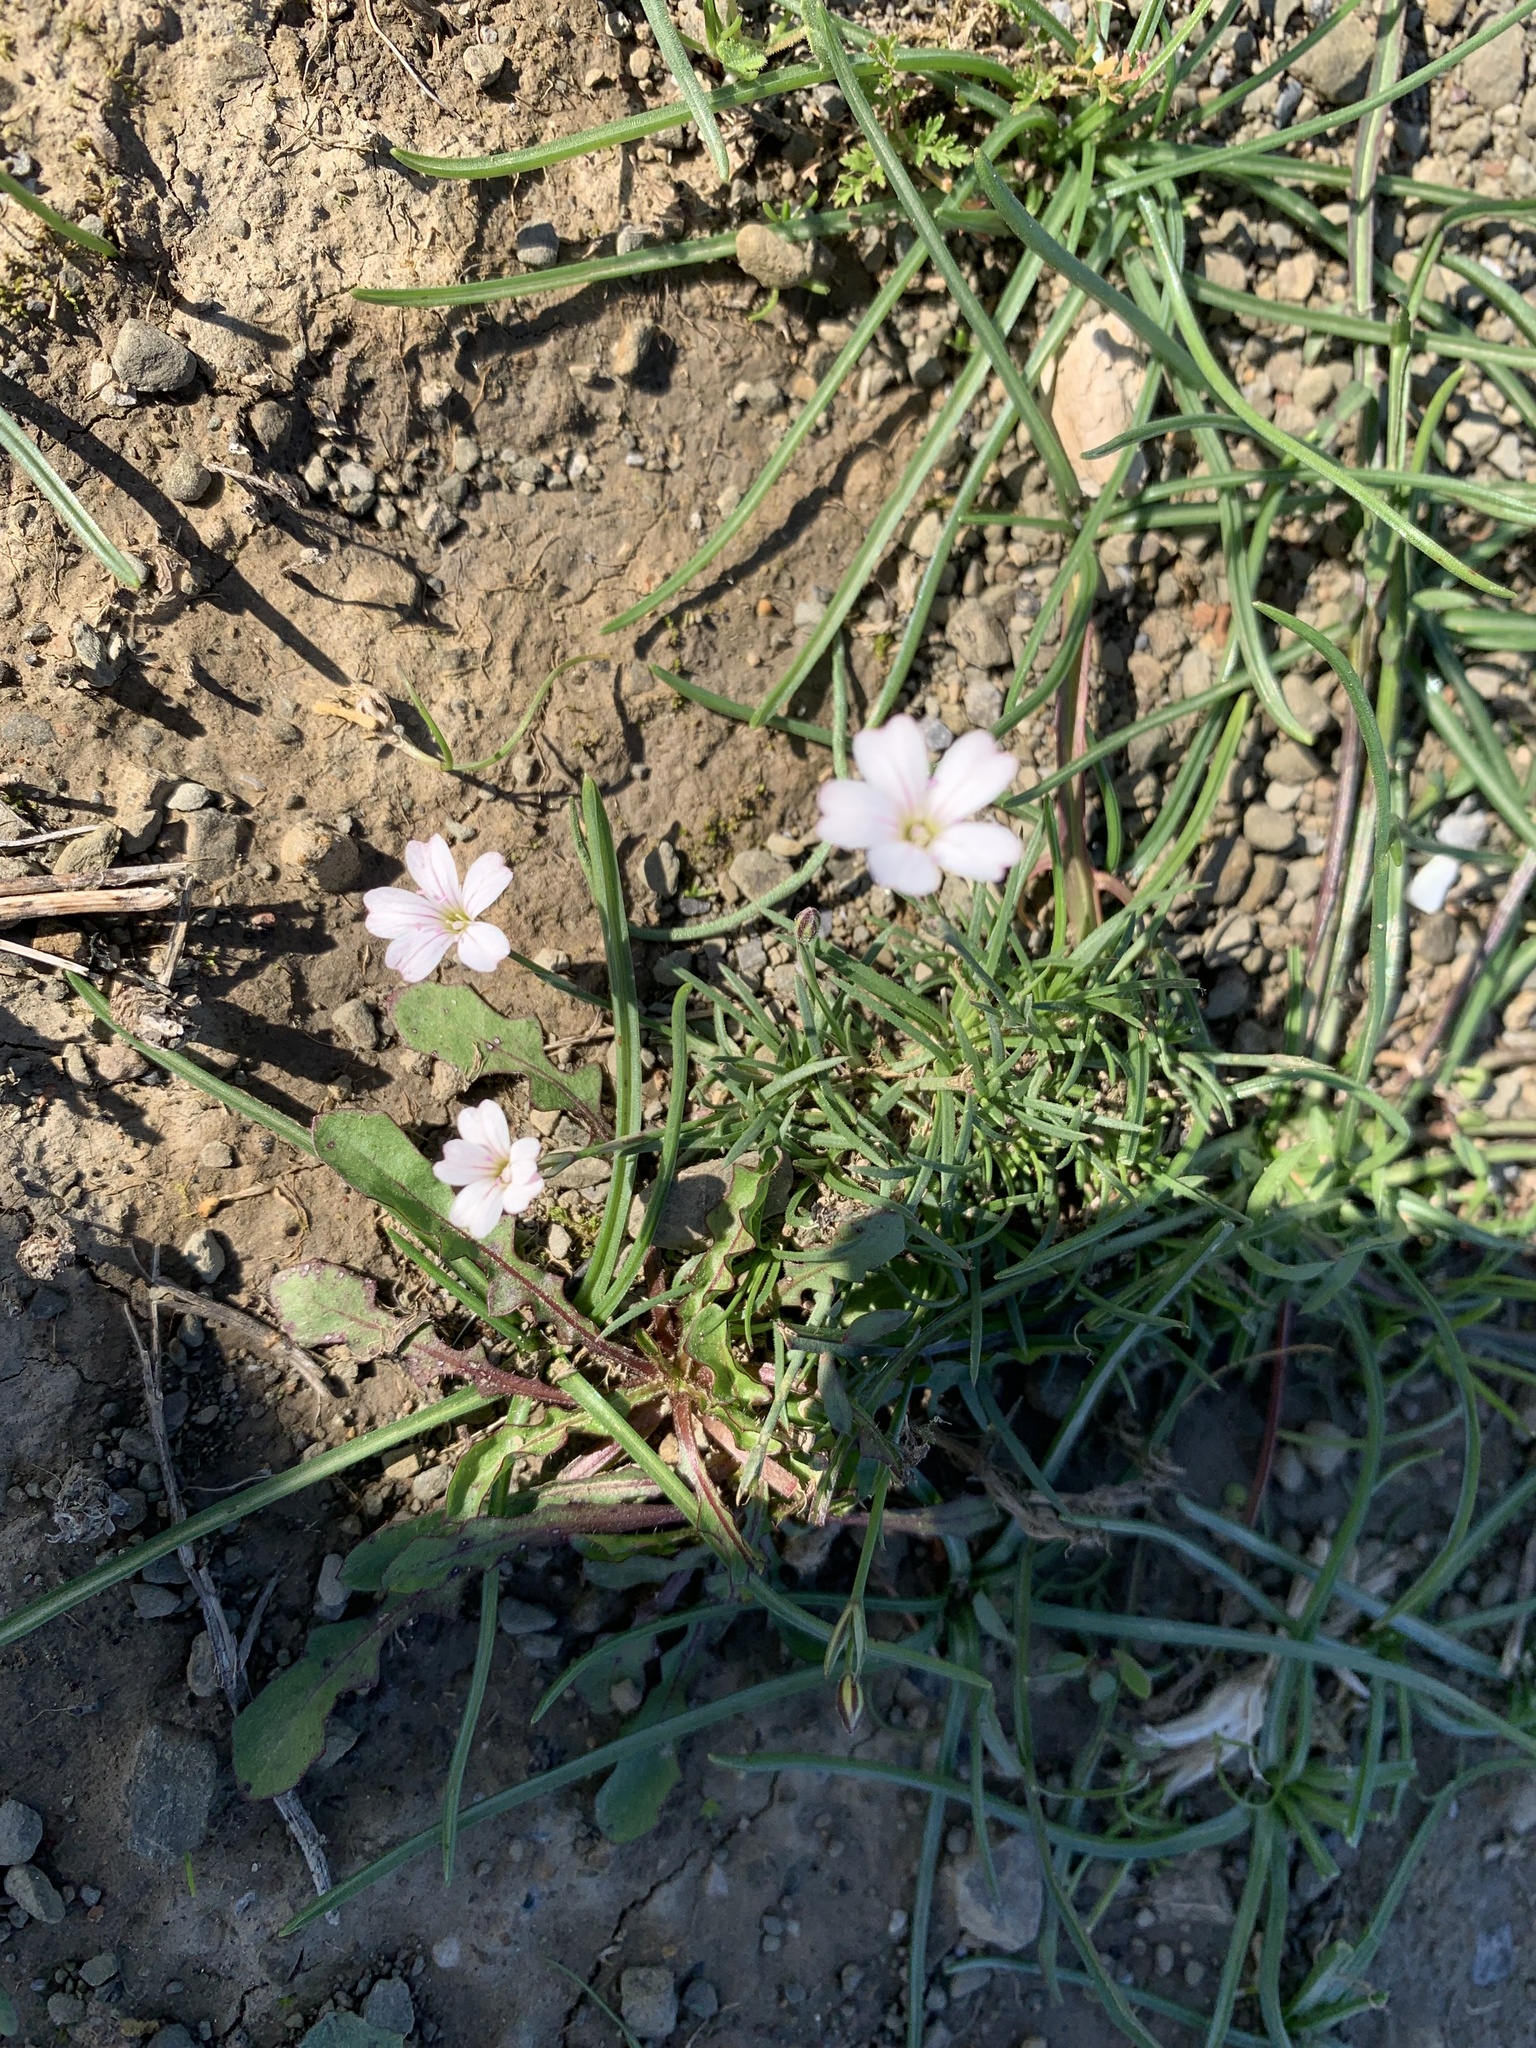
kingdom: Plantae
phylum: Tracheophyta
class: Magnoliopsida
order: Caryophyllales
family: Caryophyllaceae
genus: Petrorhagia
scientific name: Petrorhagia saxifraga
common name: Tunicflower
